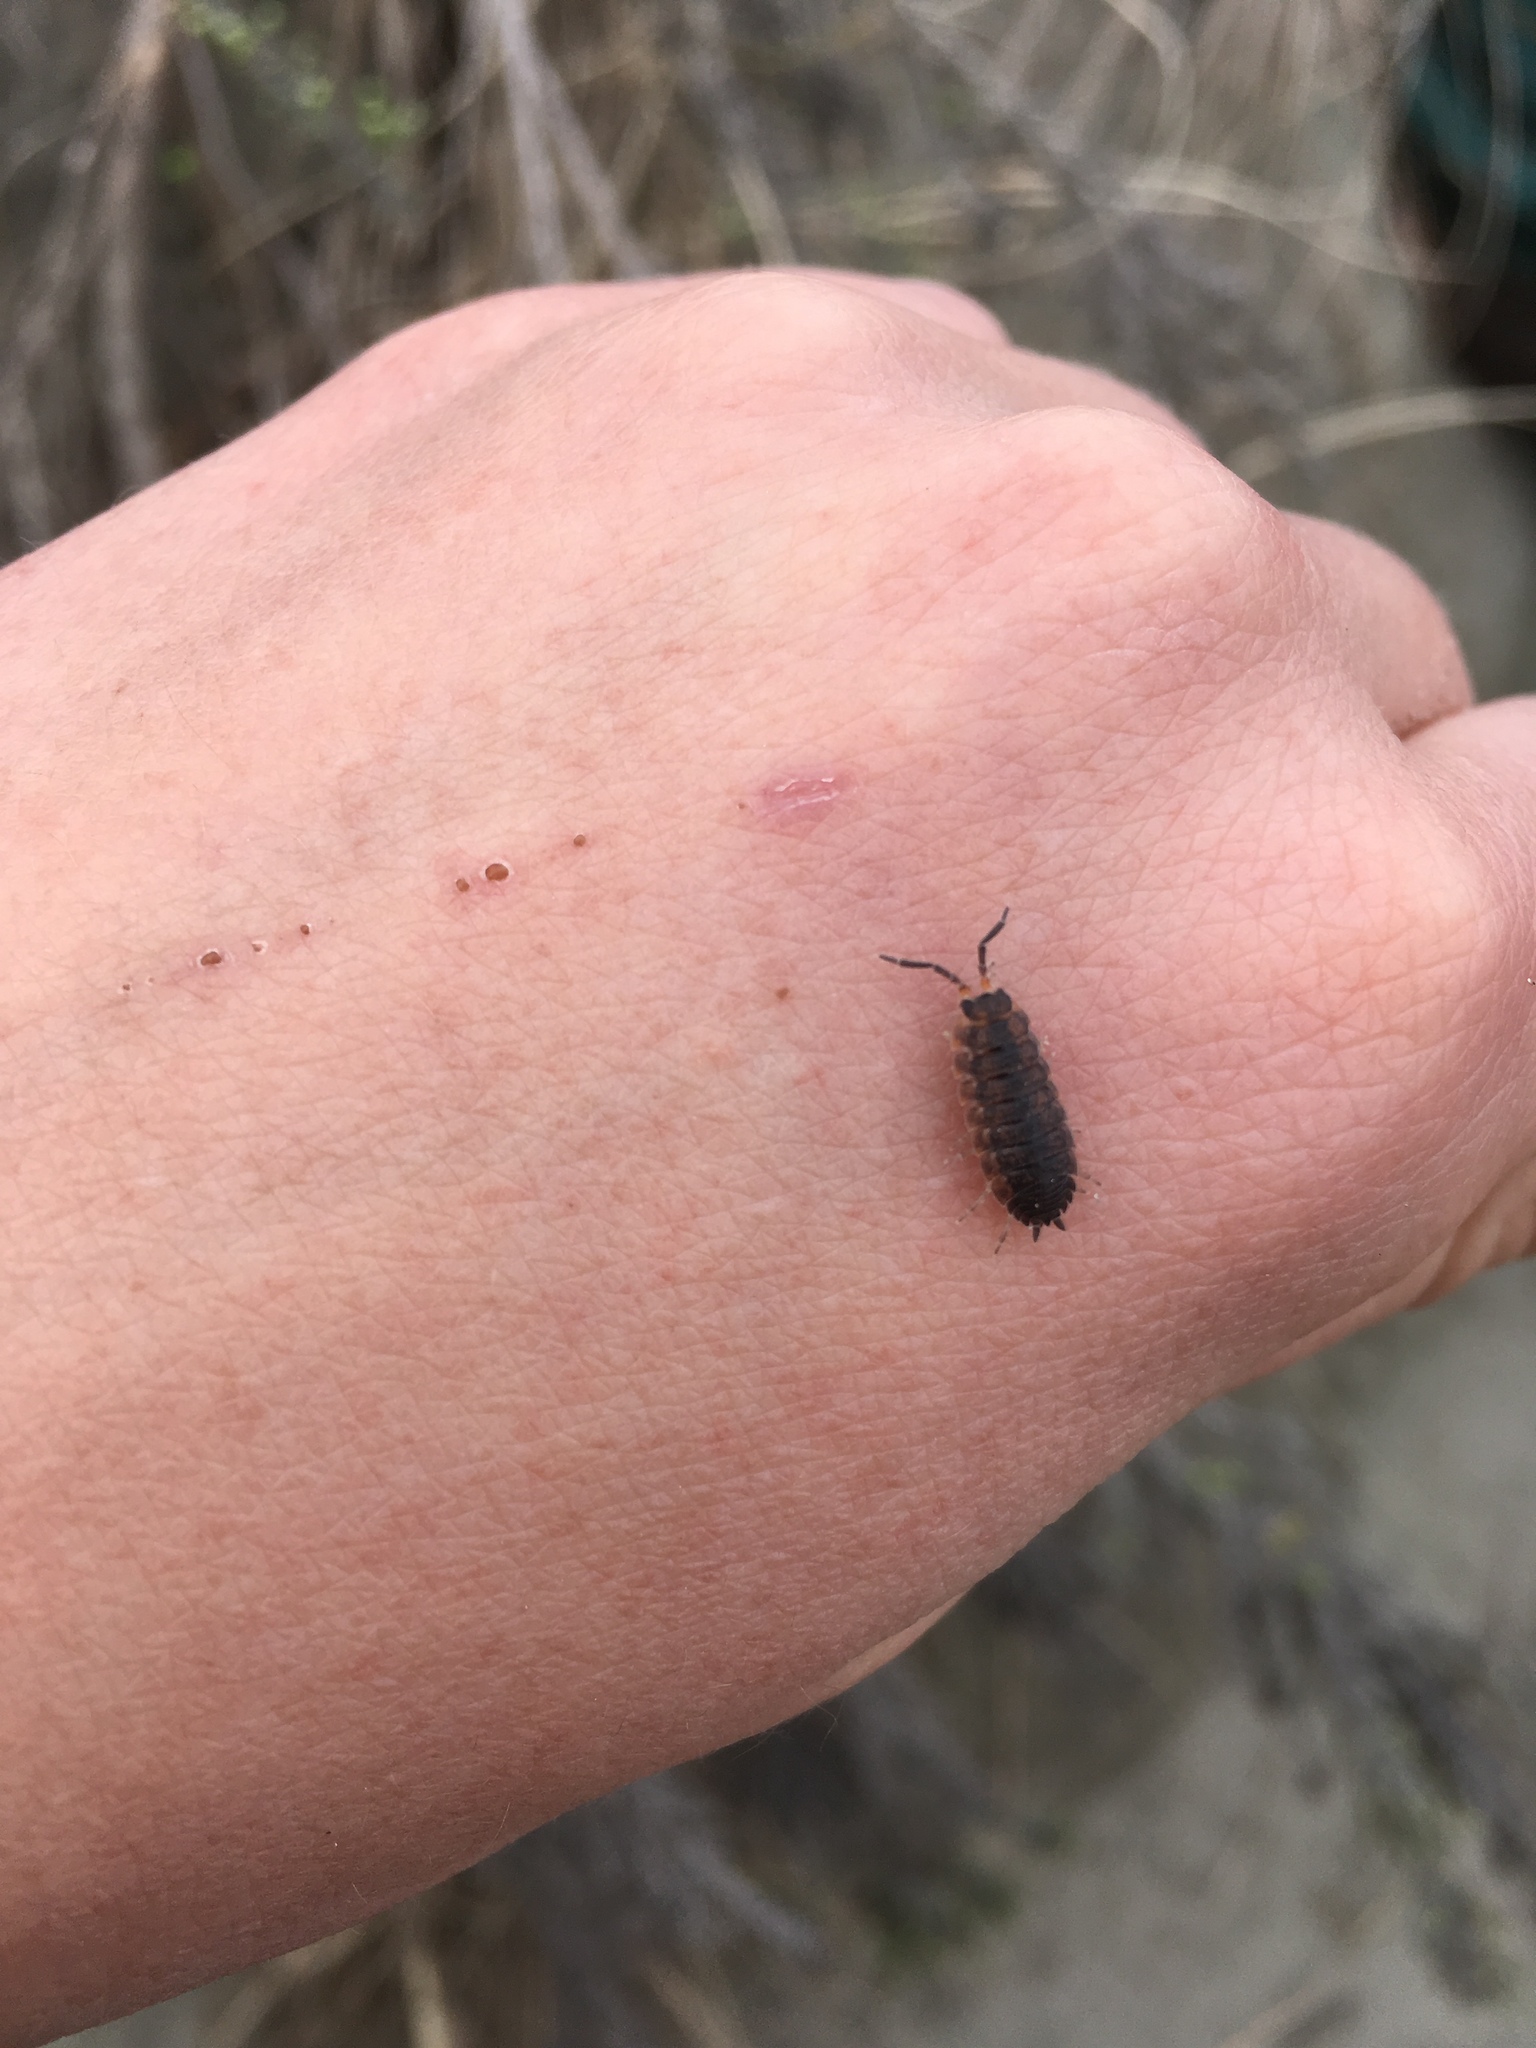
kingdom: Animalia
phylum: Arthropoda
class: Malacostraca
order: Isopoda
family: Porcellionidae
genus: Porcellio
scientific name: Porcellio scaber
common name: Common rough woodlouse
